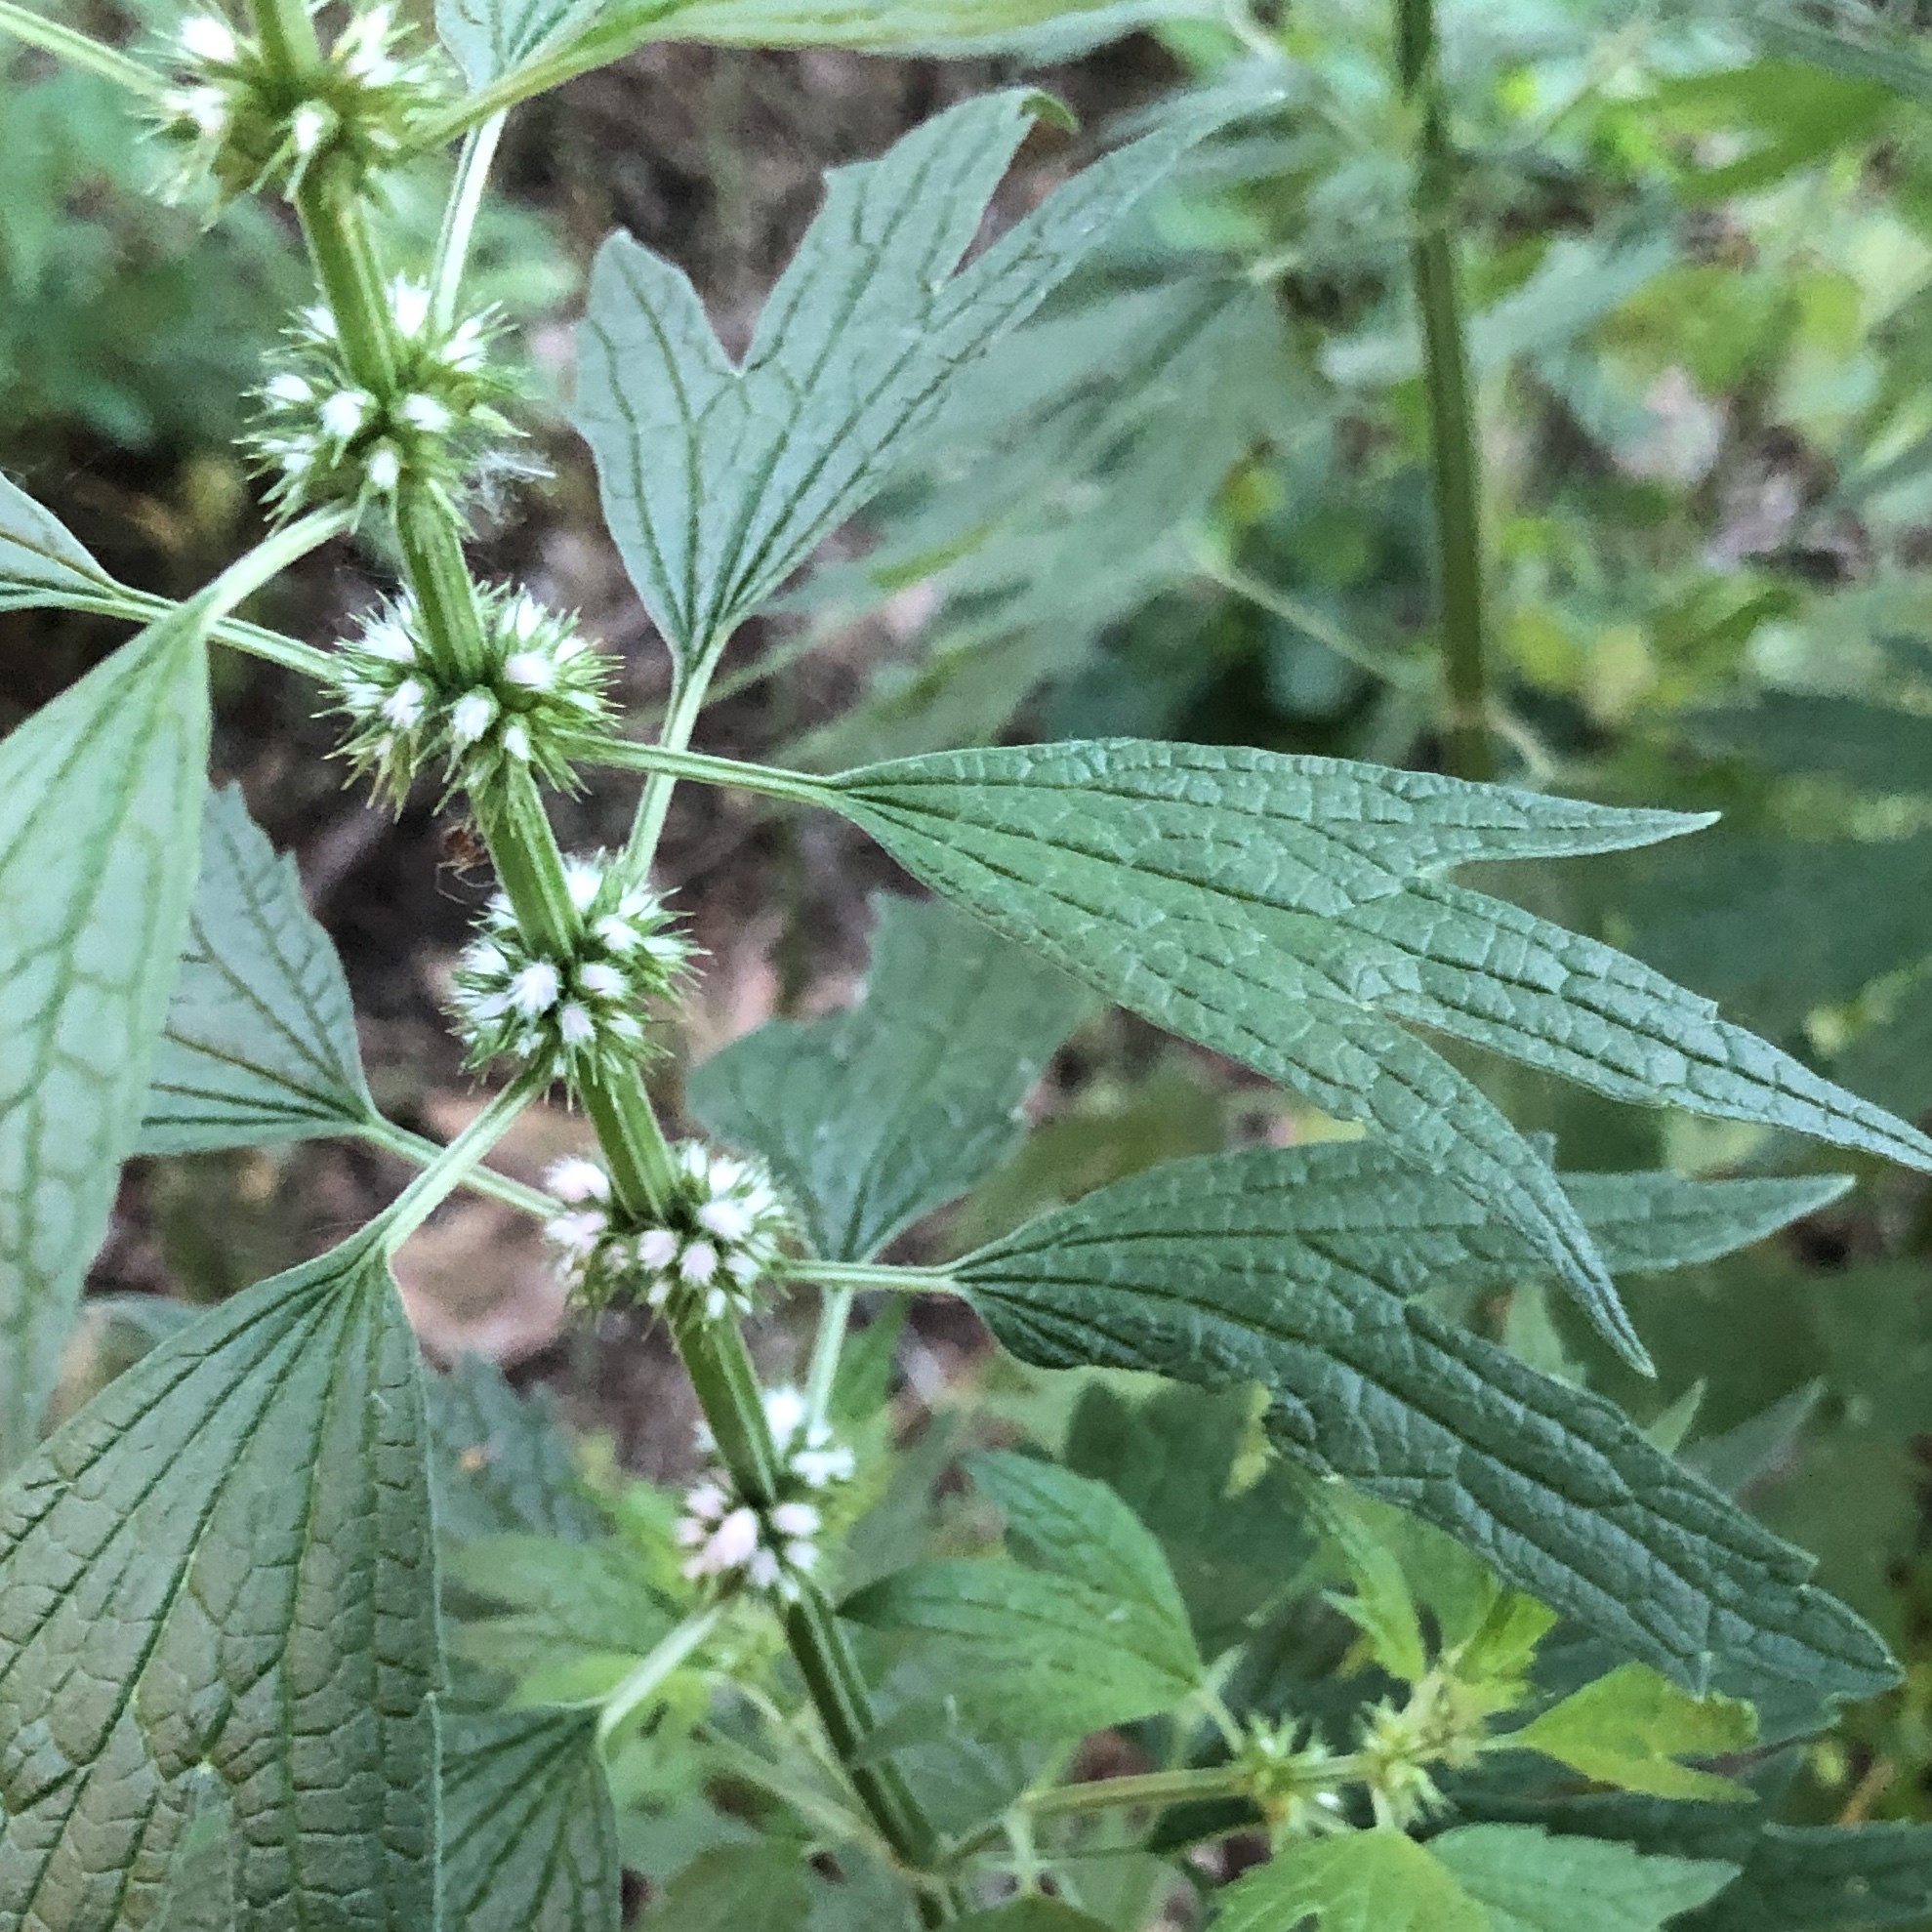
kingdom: Plantae
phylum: Tracheophyta
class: Magnoliopsida
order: Lamiales
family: Lamiaceae
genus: Leonurus
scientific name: Leonurus cardiaca
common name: Motherwort
